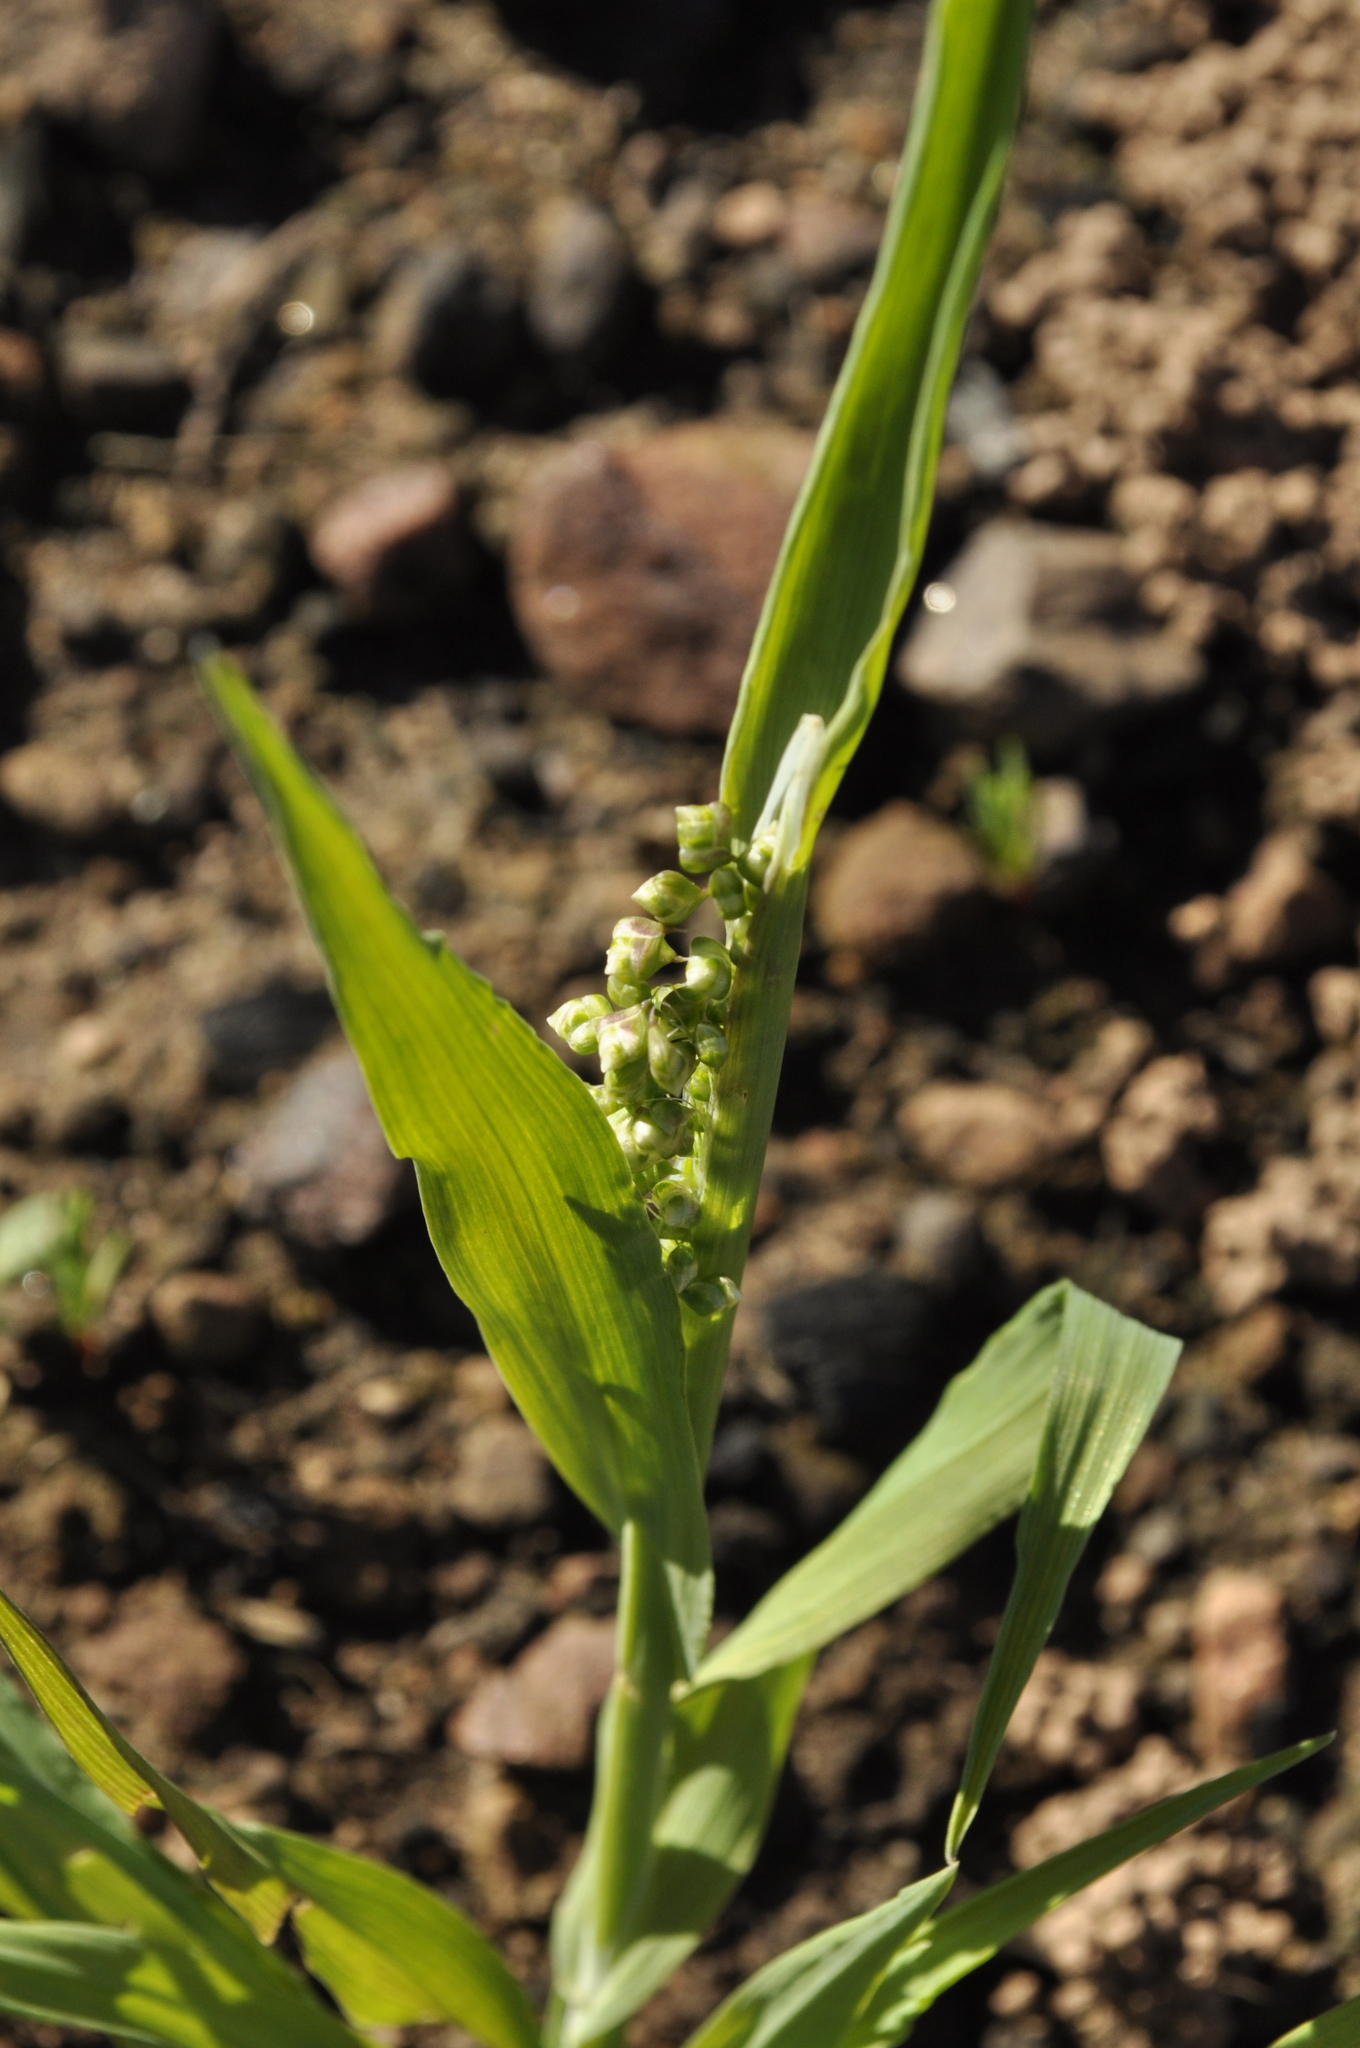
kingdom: Plantae
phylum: Tracheophyta
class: Liliopsida
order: Poales
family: Poaceae
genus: Briza
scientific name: Briza minor
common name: Lesser quaking-grass
